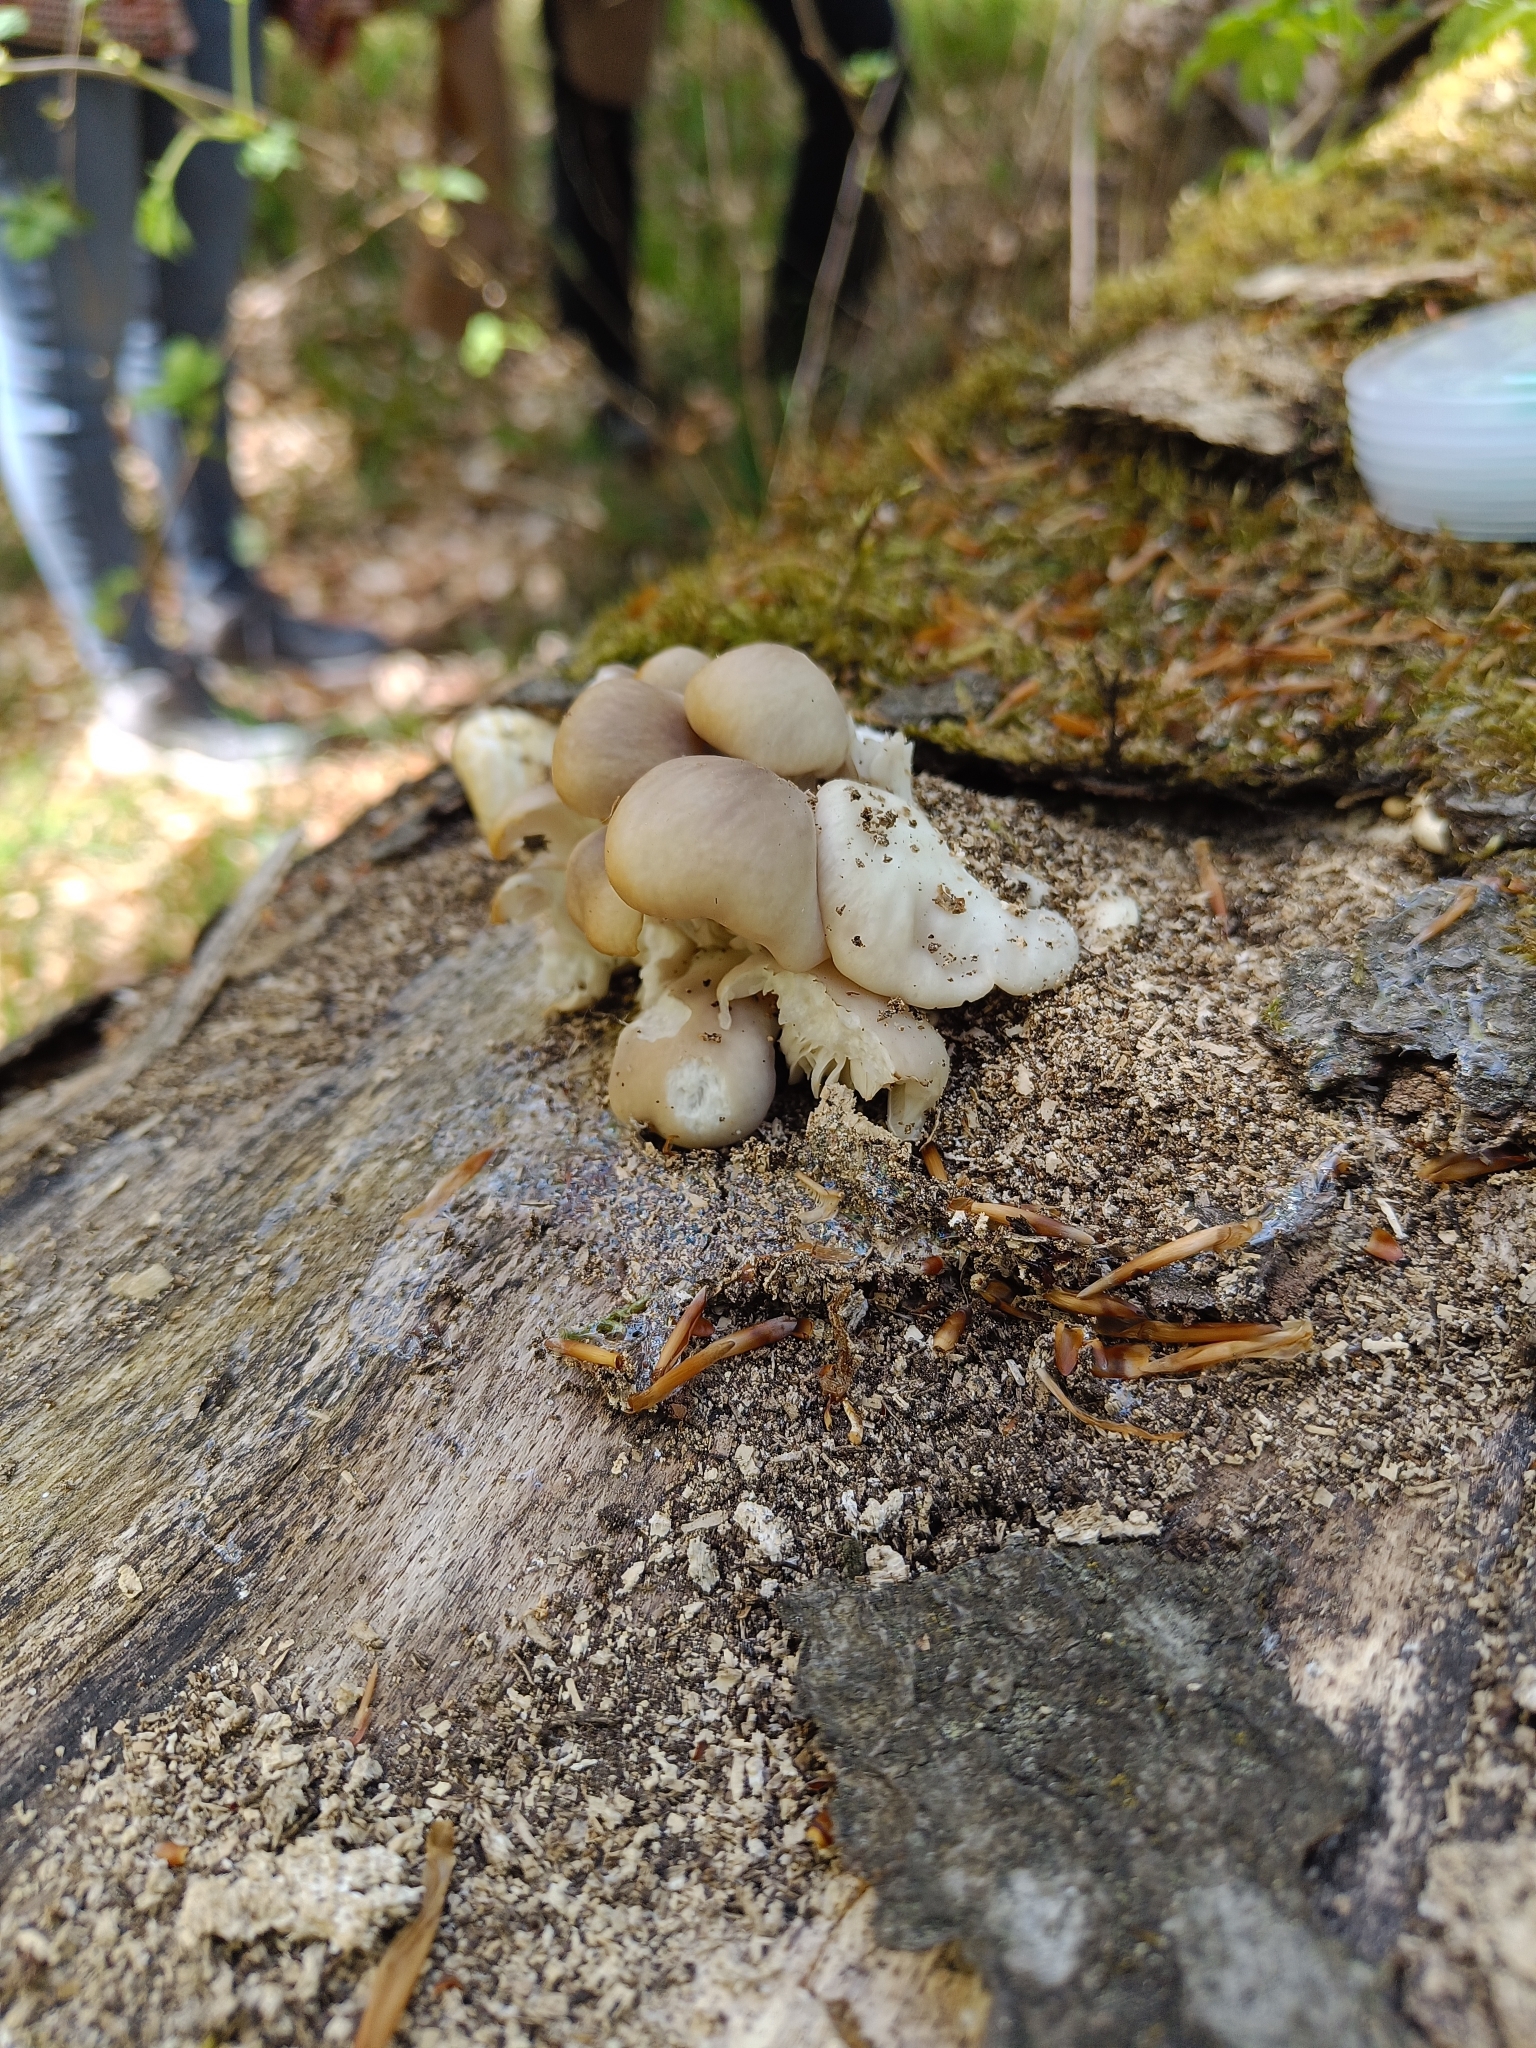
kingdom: Fungi
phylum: Basidiomycota
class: Agaricomycetes
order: Agaricales
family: Pleurotaceae
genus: Pleurotus
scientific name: Pleurotus ostreatus
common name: Oyster mushroom
